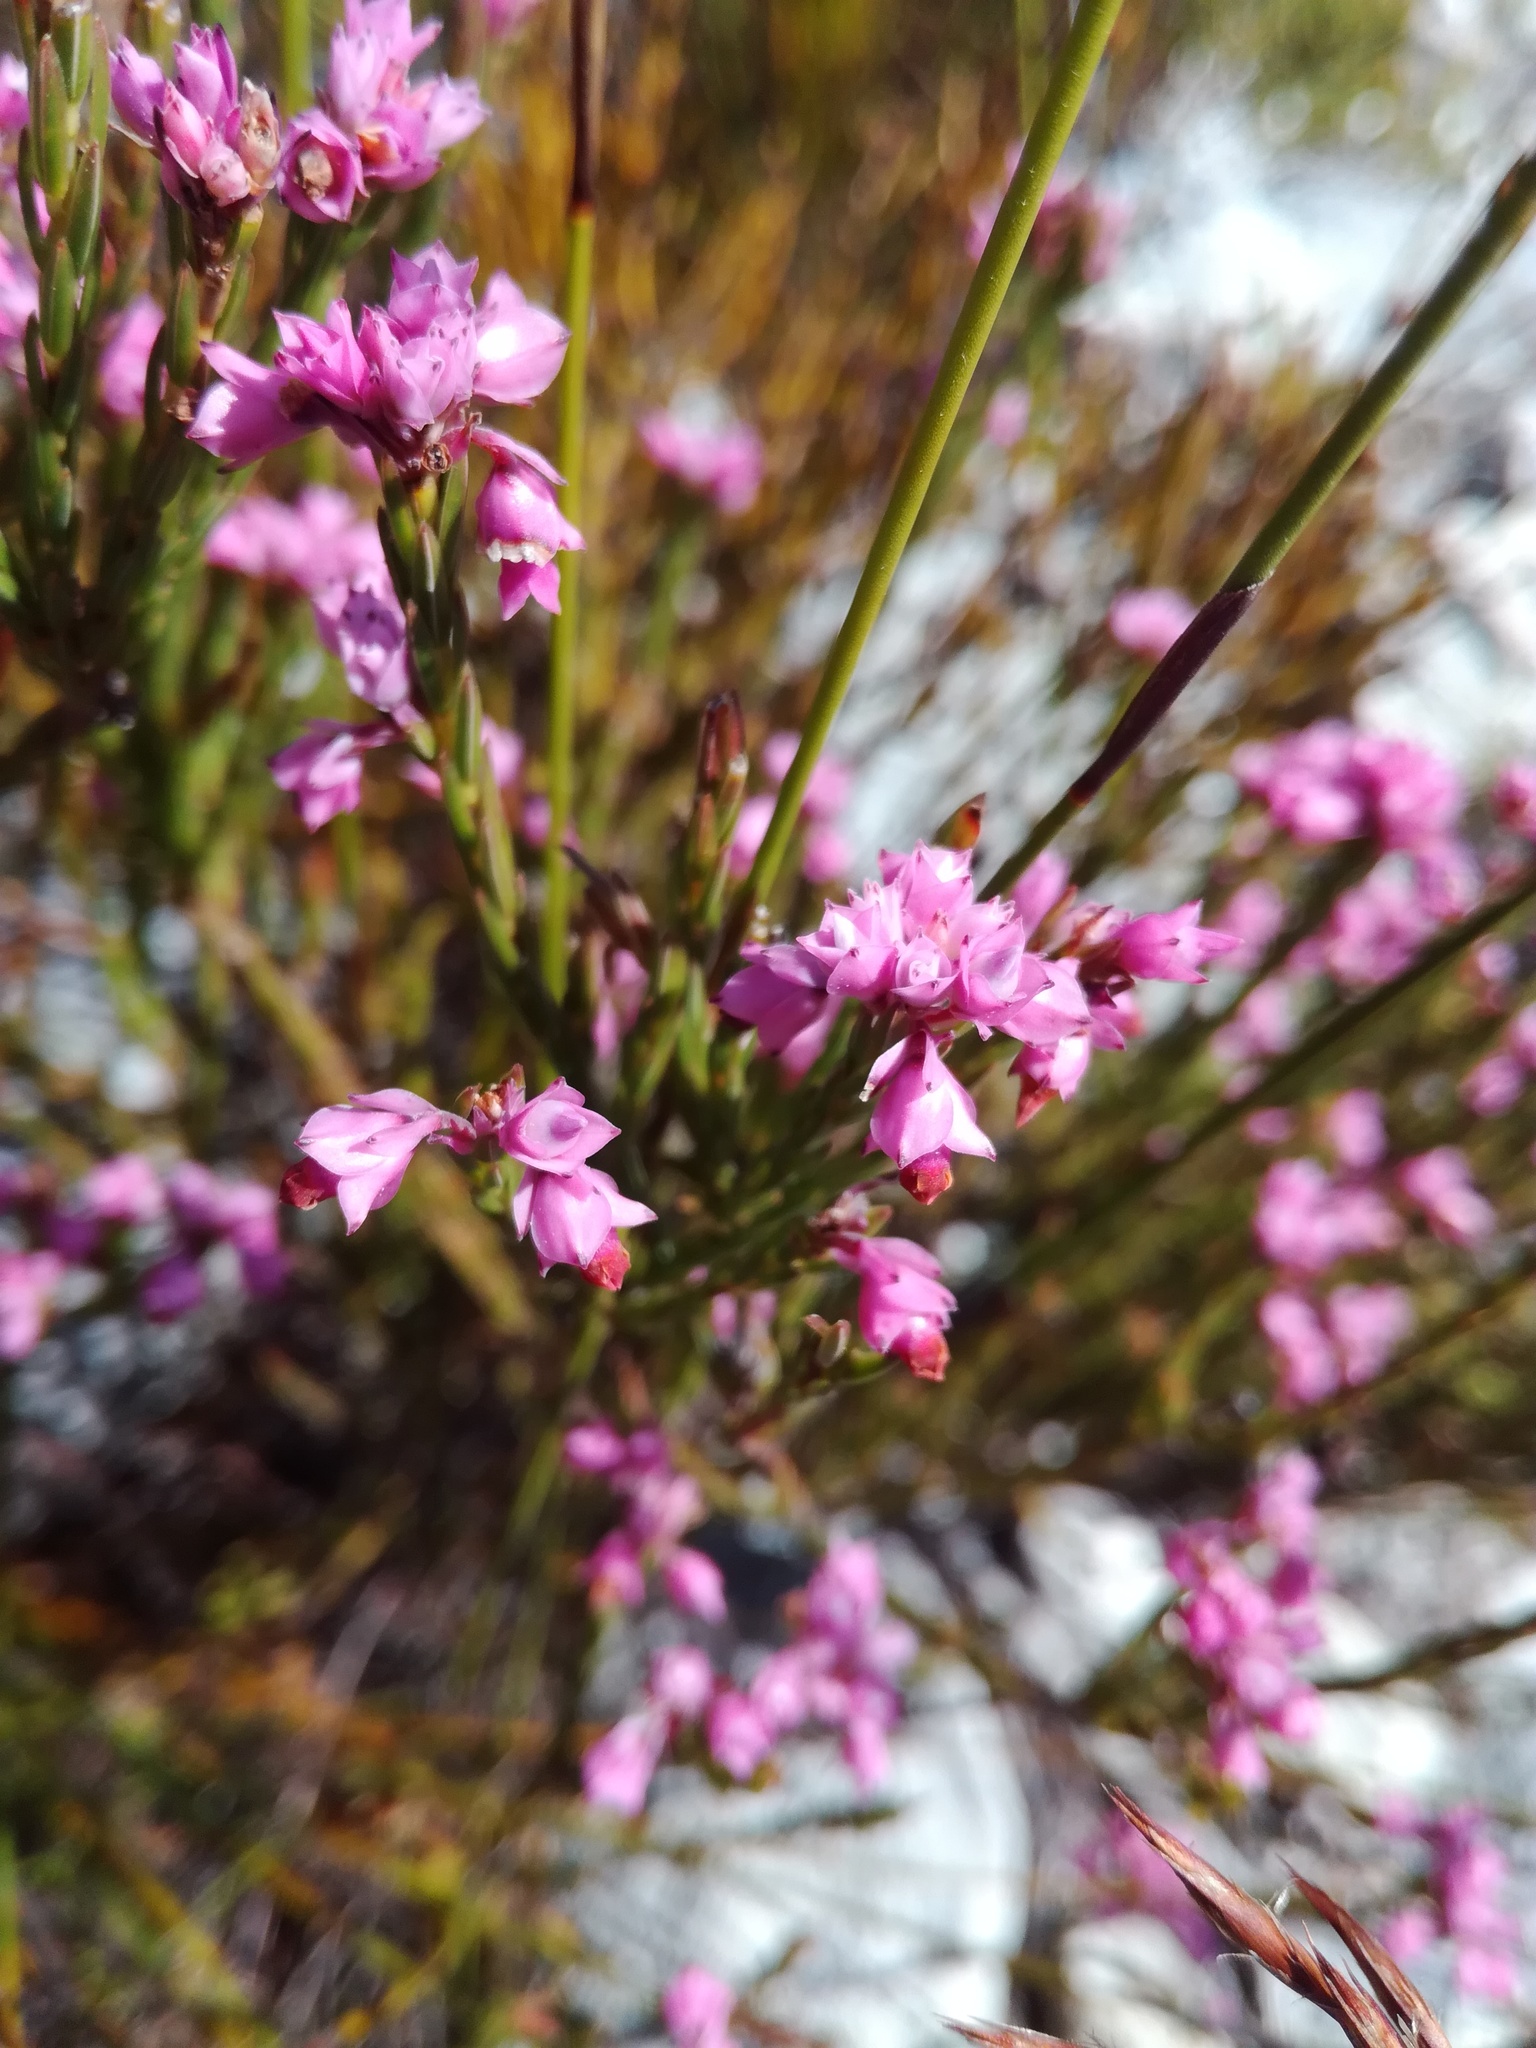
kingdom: Plantae
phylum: Tracheophyta
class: Magnoliopsida
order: Ericales
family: Ericaceae
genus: Erica
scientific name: Erica corifolia
